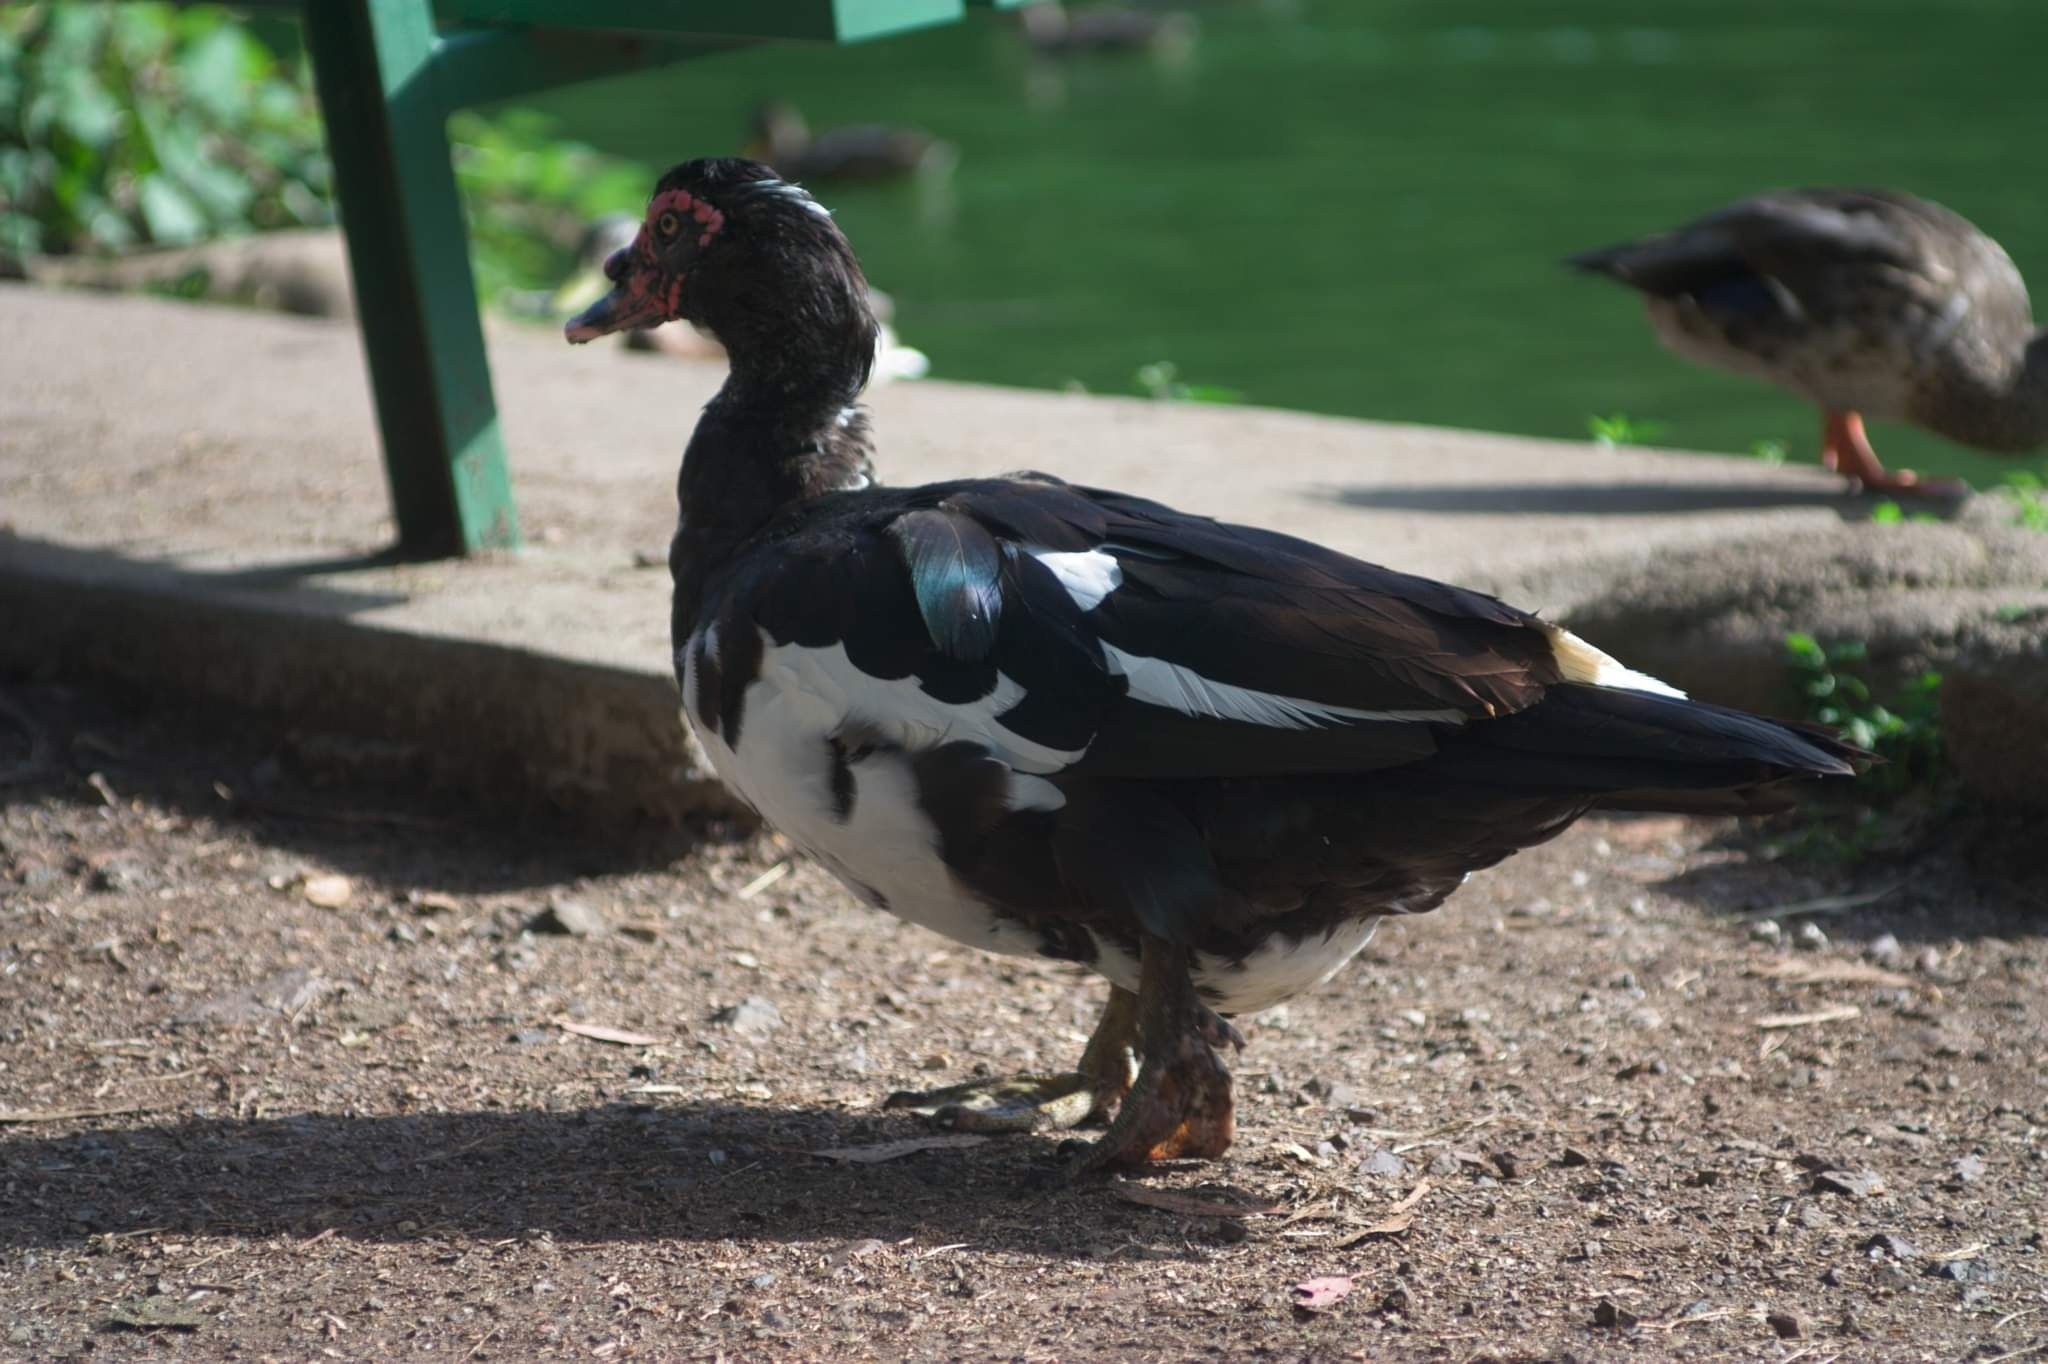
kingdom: Animalia
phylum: Chordata
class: Aves
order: Anseriformes
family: Anatidae
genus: Cairina
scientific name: Cairina moschata
